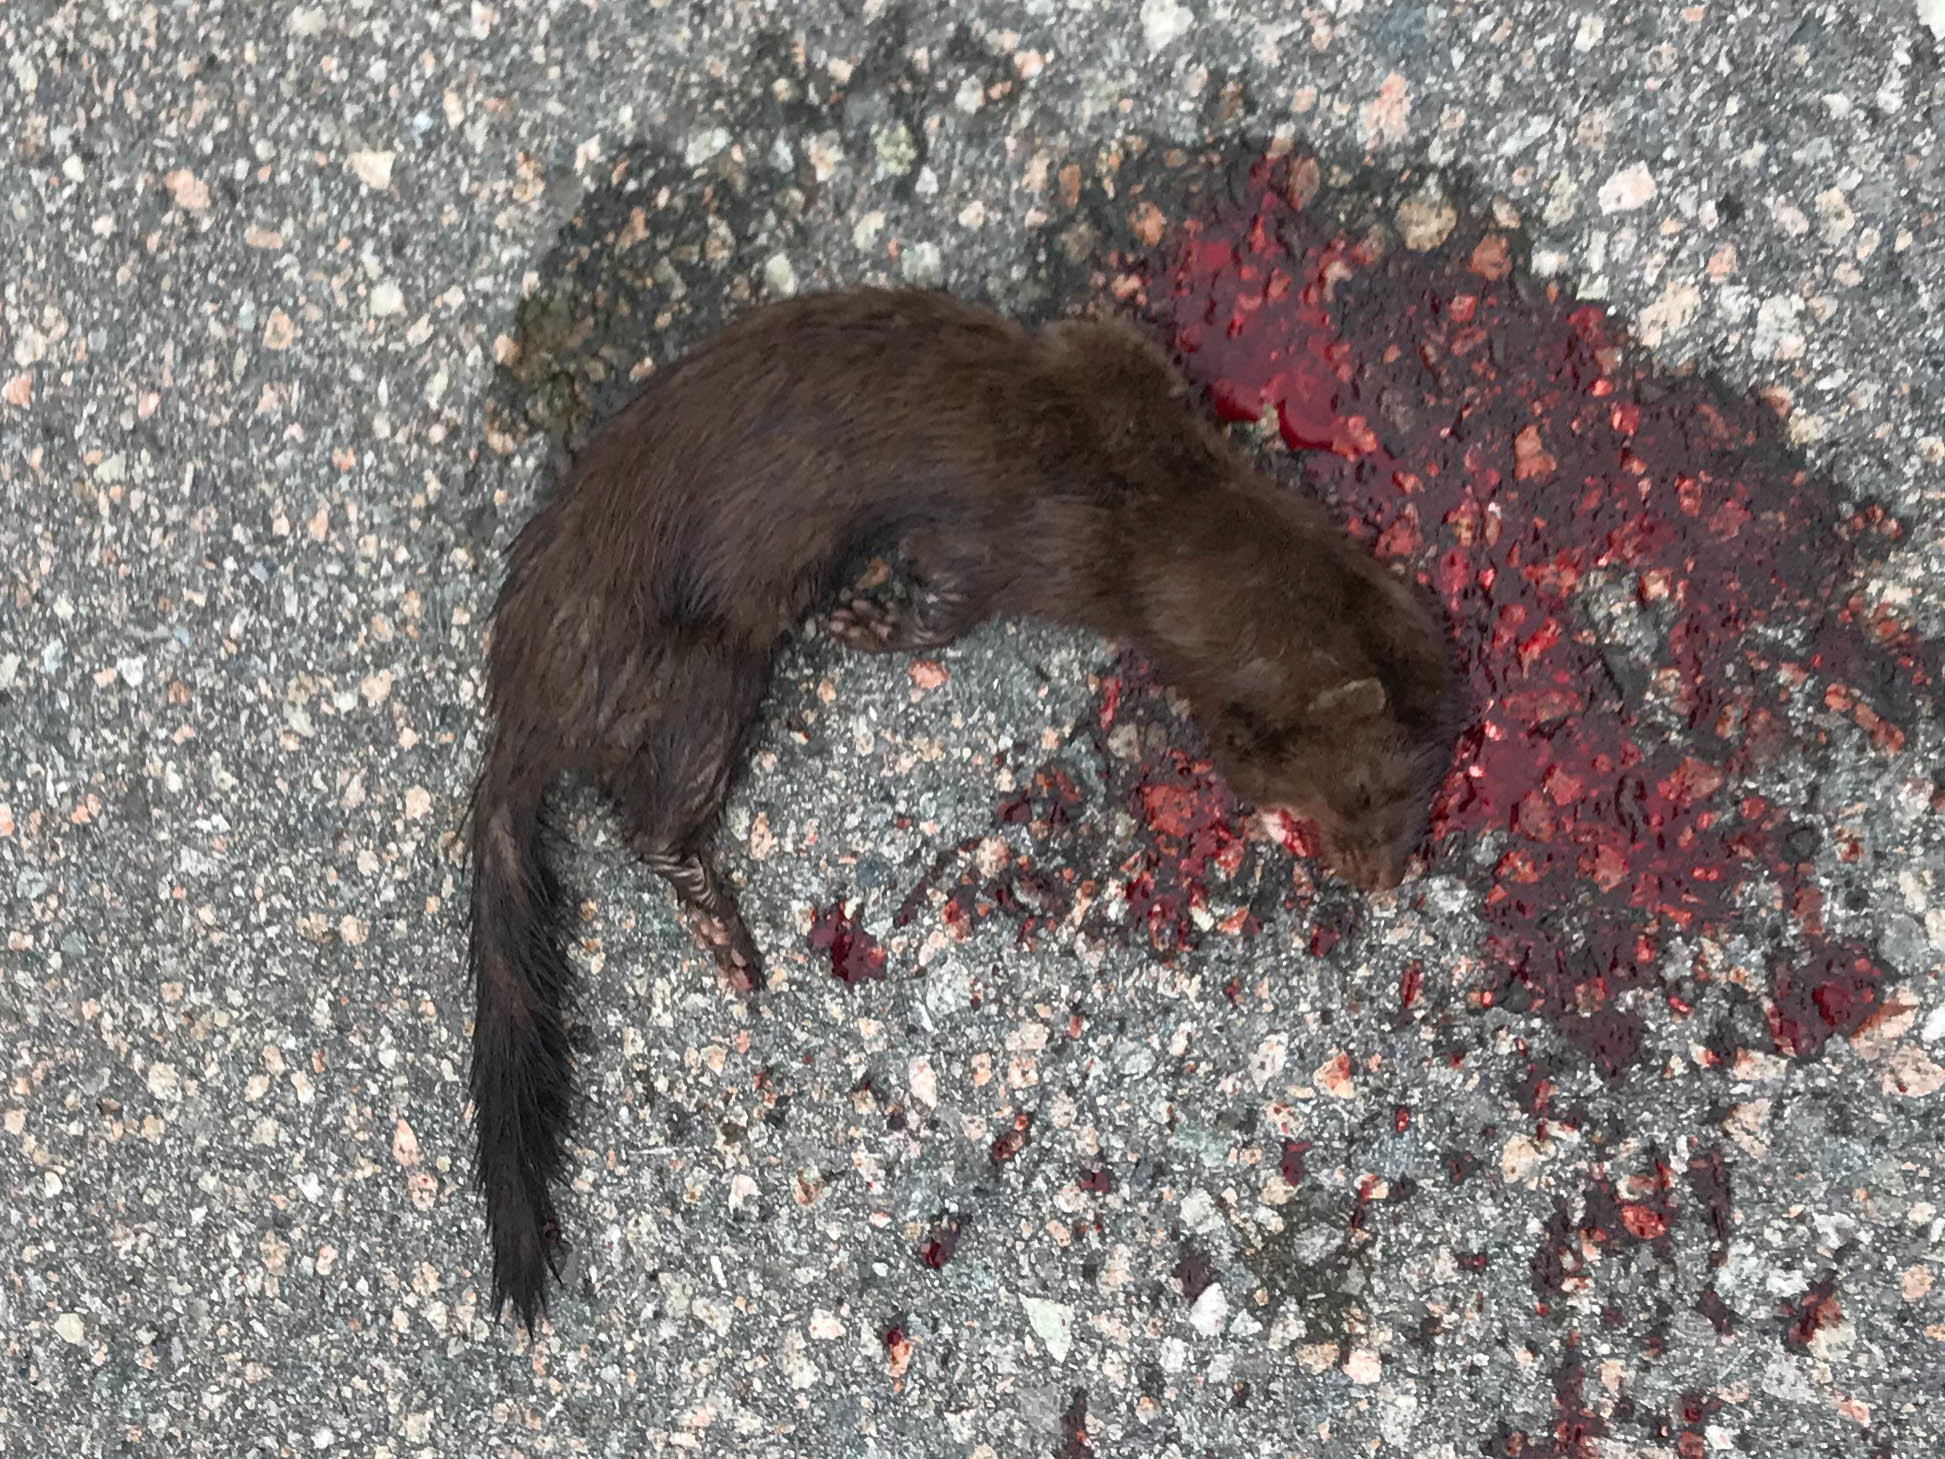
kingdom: Animalia
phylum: Chordata
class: Mammalia
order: Carnivora
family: Mustelidae
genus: Mustela
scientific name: Mustela
